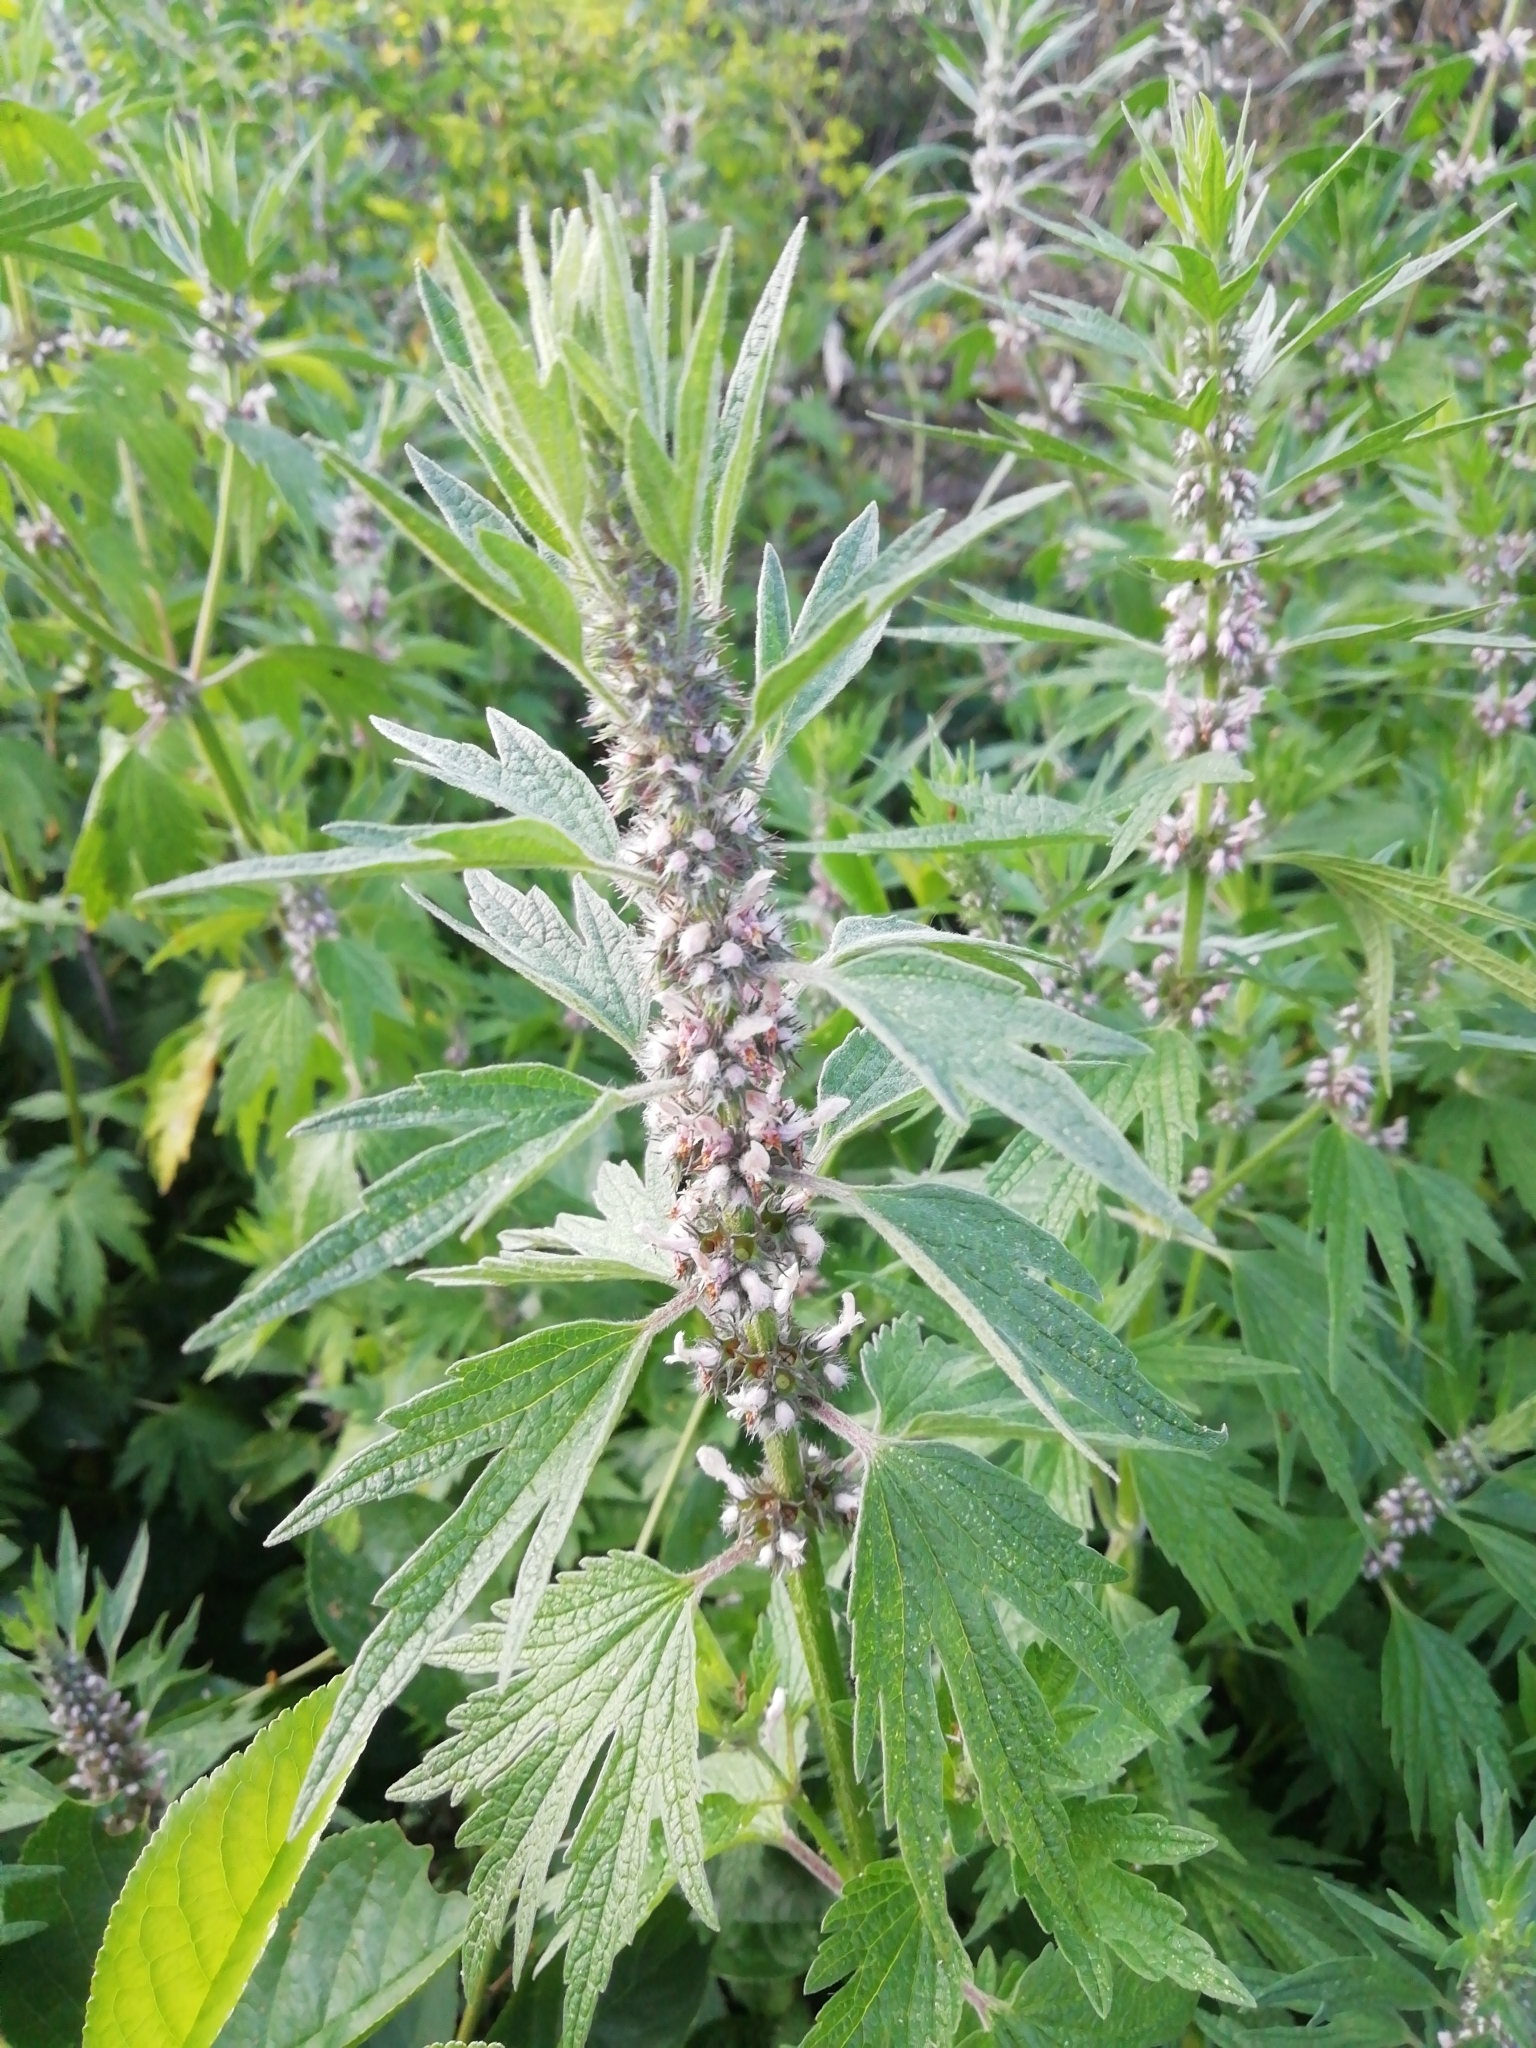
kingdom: Plantae
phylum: Tracheophyta
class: Magnoliopsida
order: Lamiales
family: Lamiaceae
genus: Leonurus
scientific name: Leonurus quinquelobatus
